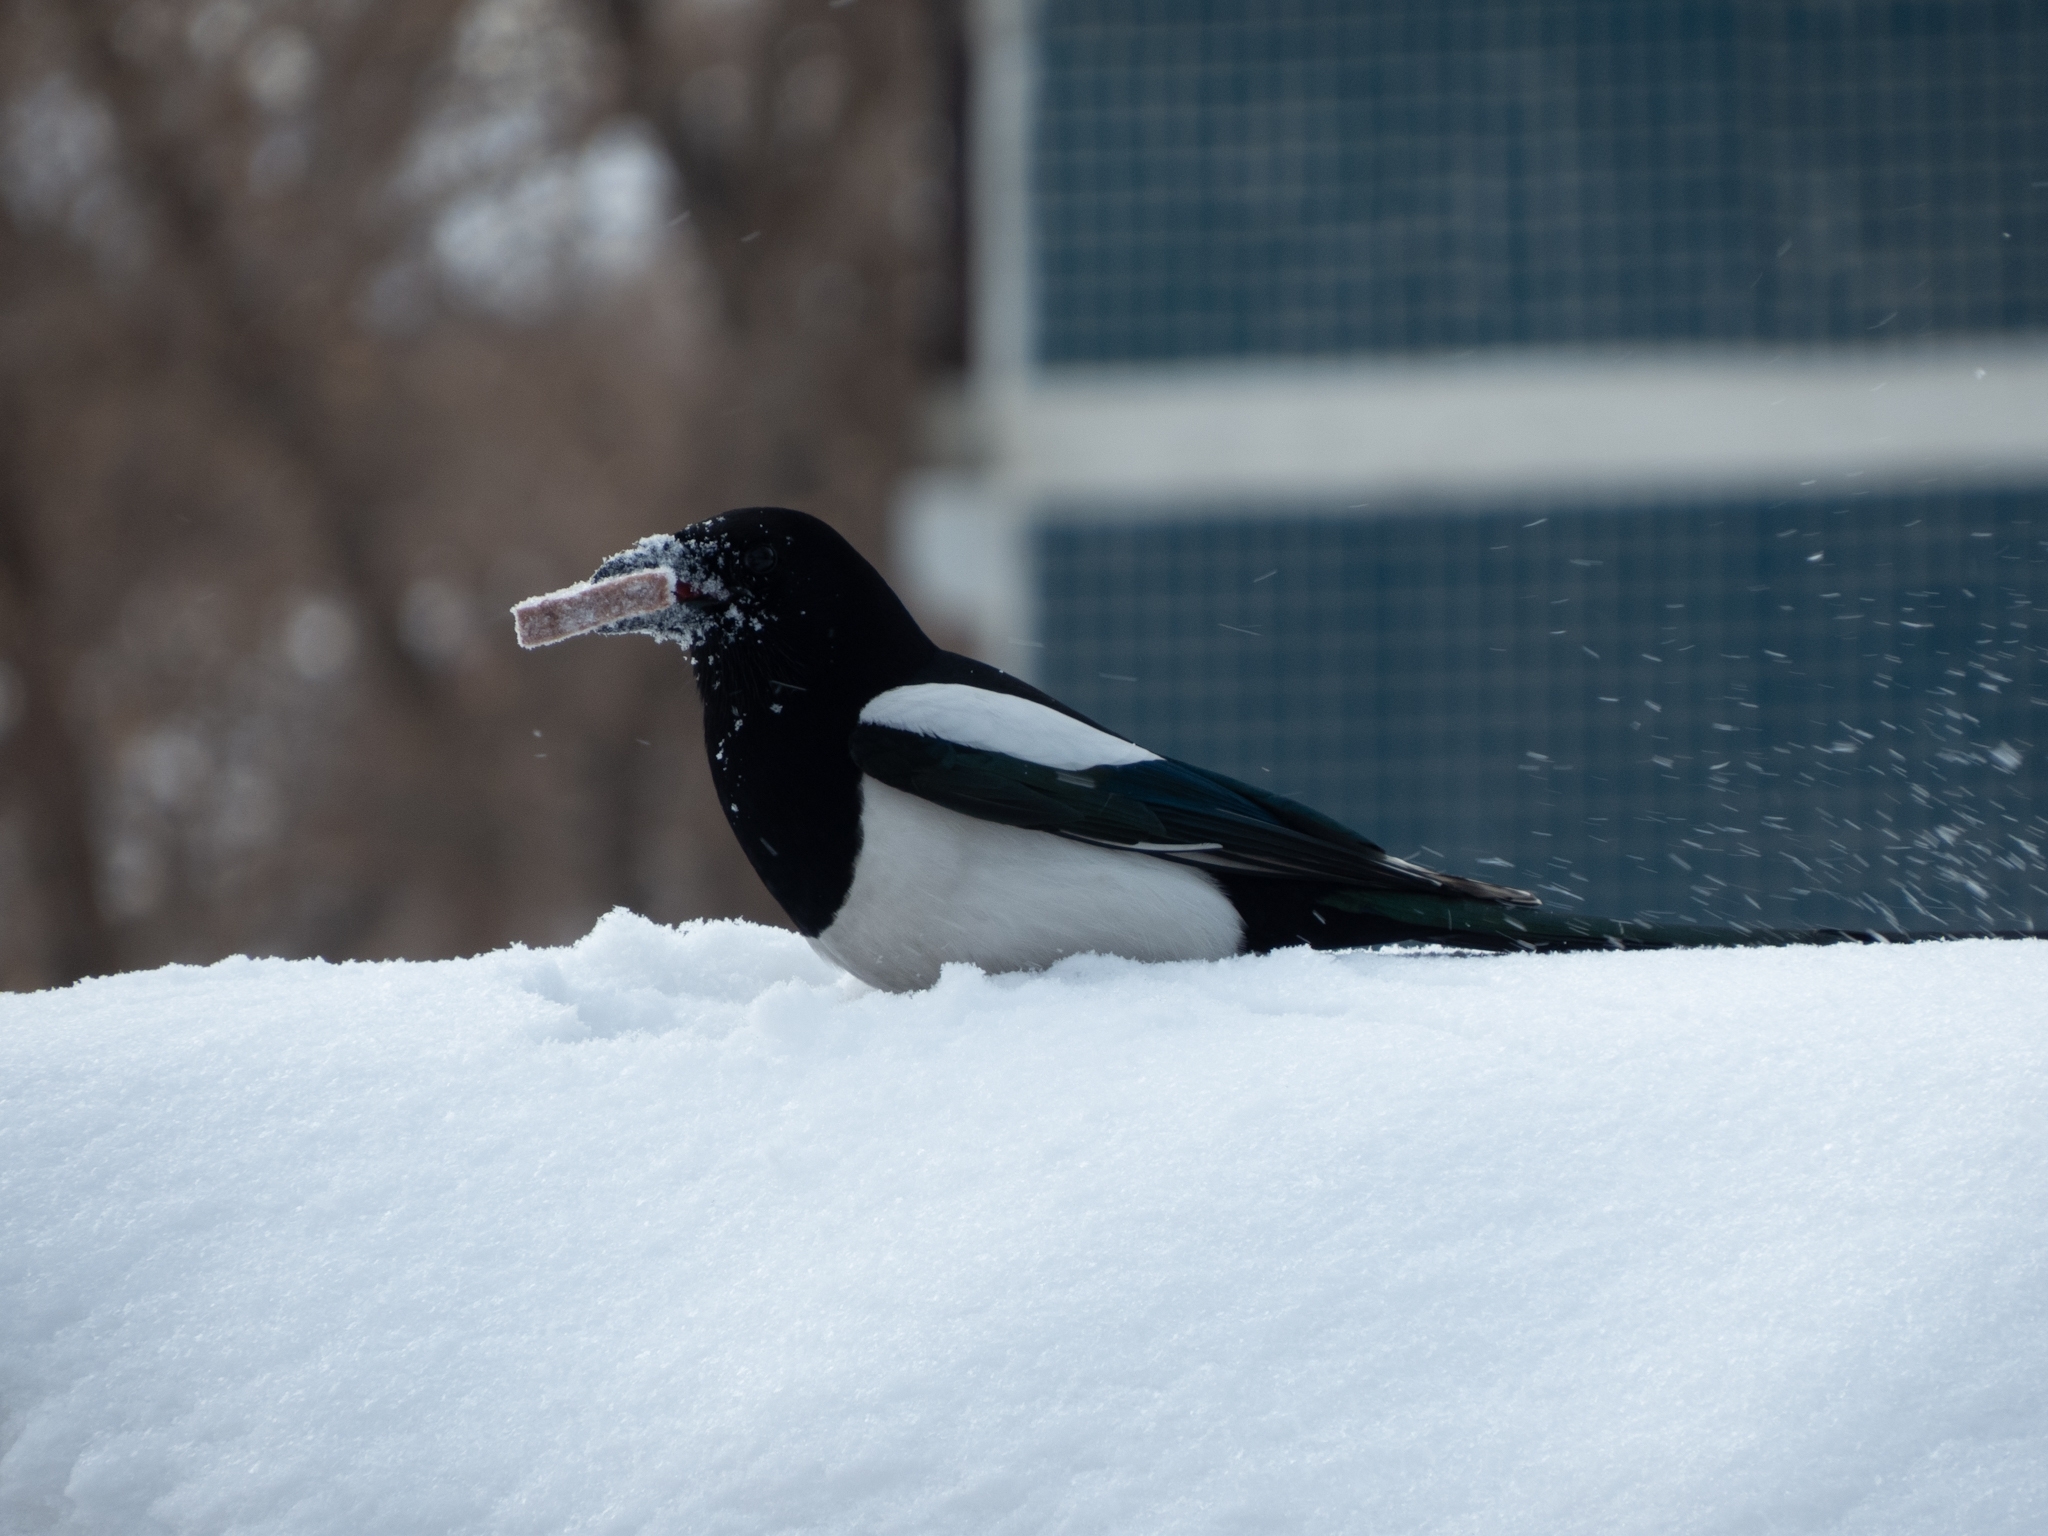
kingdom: Animalia
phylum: Chordata
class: Aves
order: Passeriformes
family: Corvidae
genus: Pica
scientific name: Pica pica
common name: Eurasian magpie
